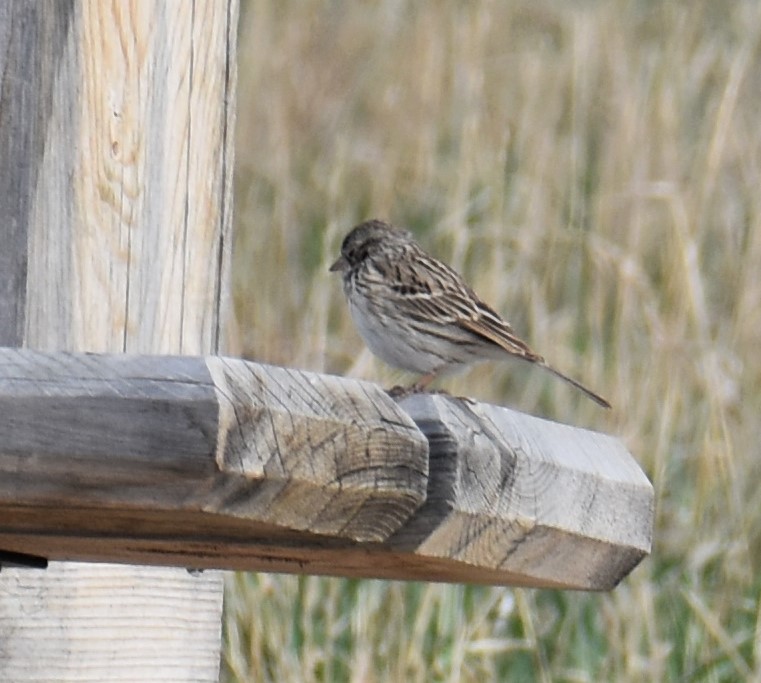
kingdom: Animalia
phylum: Chordata
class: Aves
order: Passeriformes
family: Passerellidae
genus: Pooecetes
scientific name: Pooecetes gramineus
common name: Vesper sparrow
